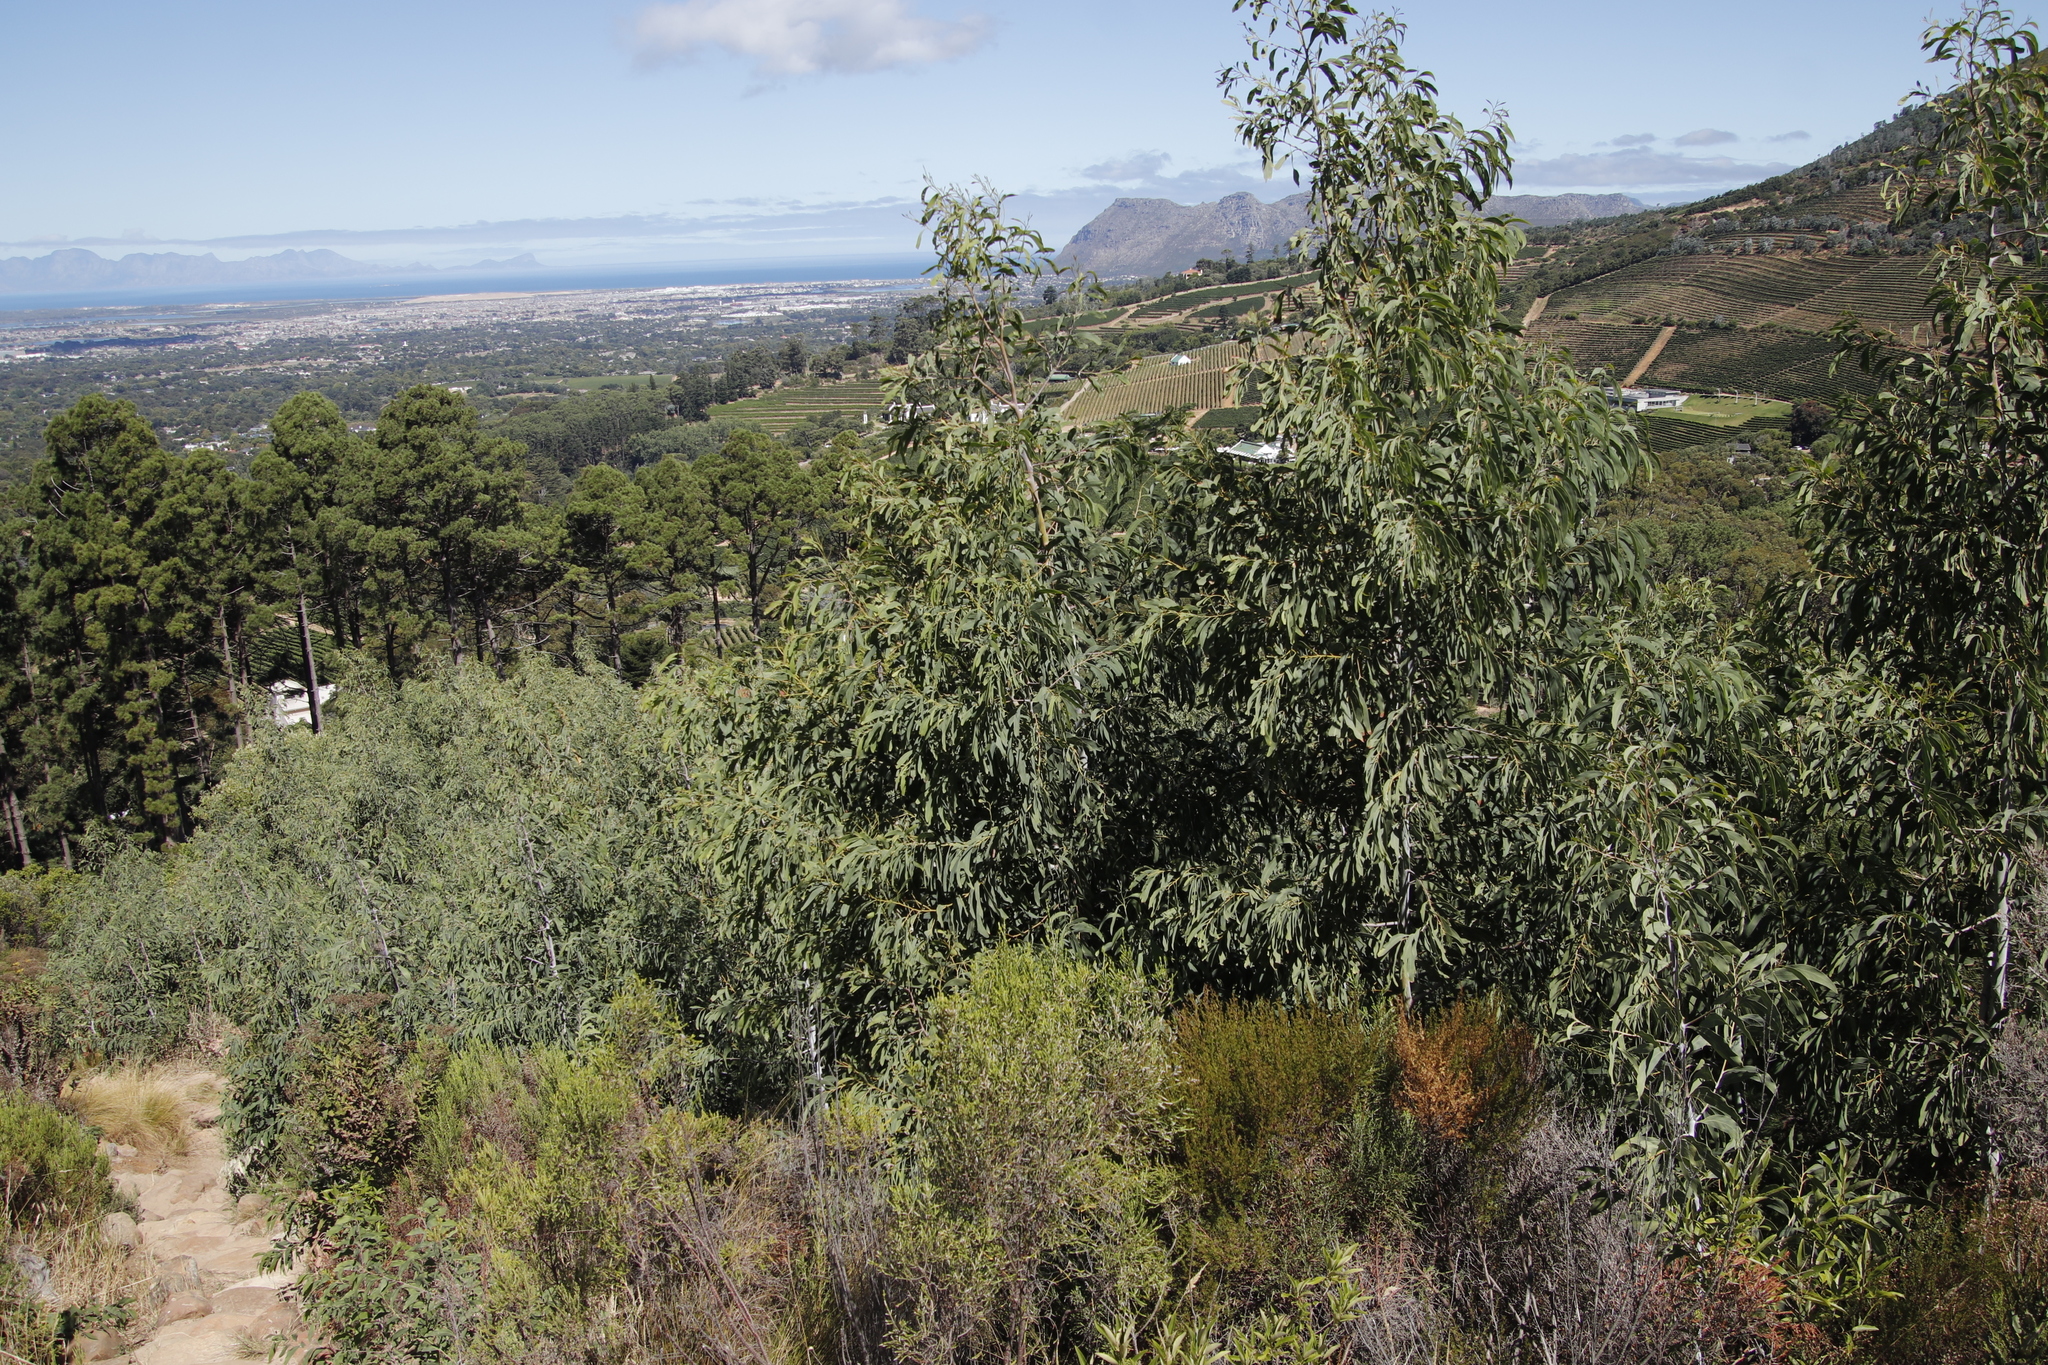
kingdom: Plantae
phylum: Tracheophyta
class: Magnoliopsida
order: Fabales
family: Fabaceae
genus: Acacia
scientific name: Acacia falciformis
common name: Tanning wattle
